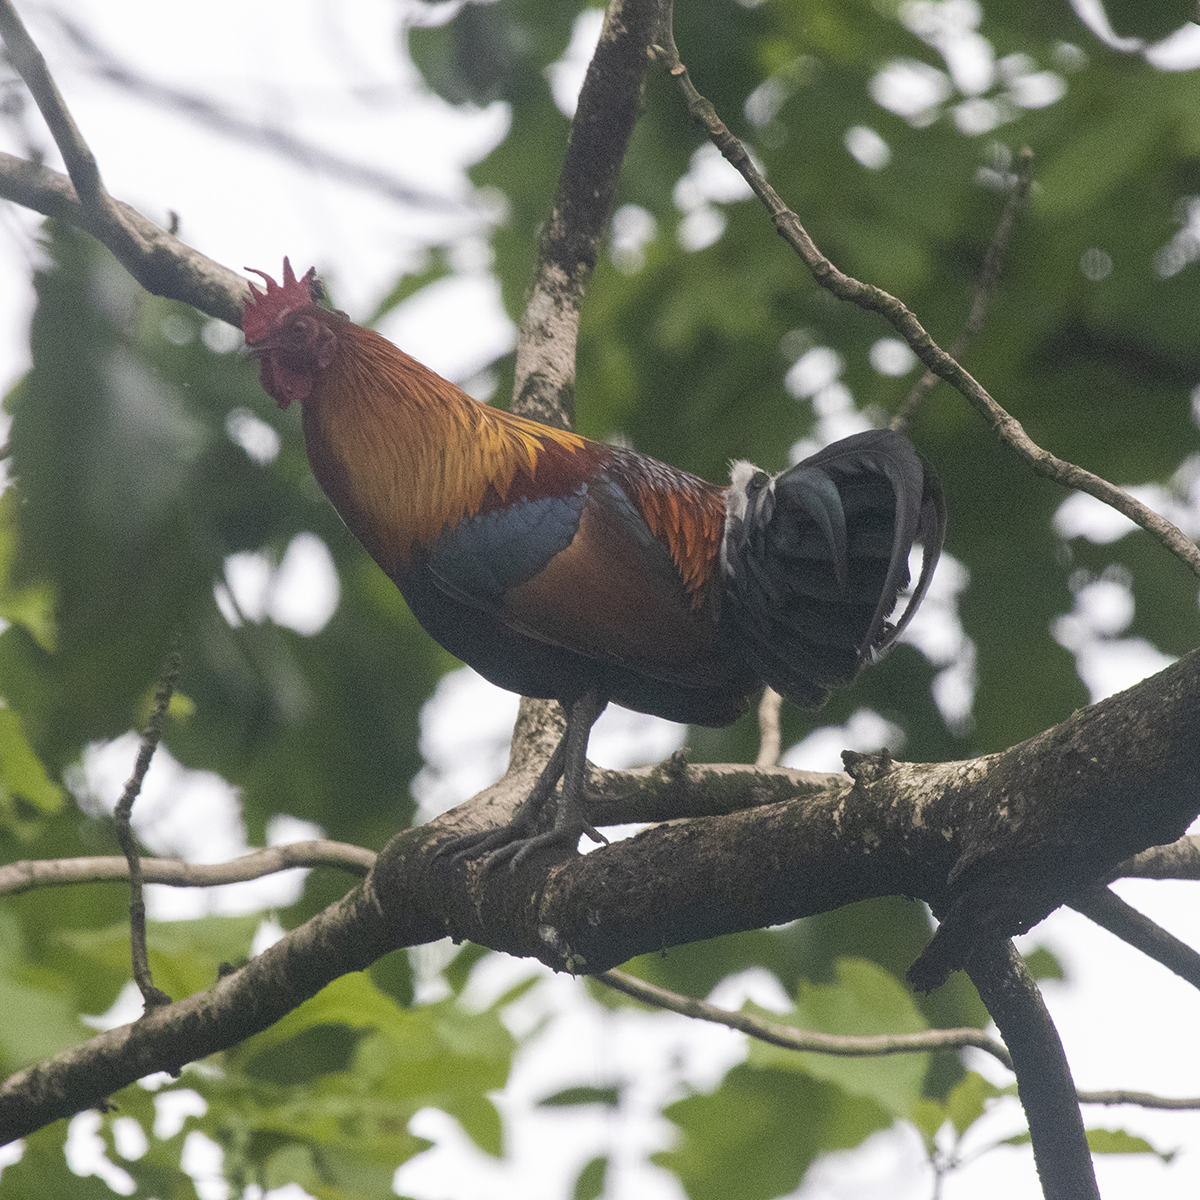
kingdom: Animalia
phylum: Chordata
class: Aves
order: Galliformes
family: Phasianidae
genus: Gallus
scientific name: Gallus gallus
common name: Red junglefowl
